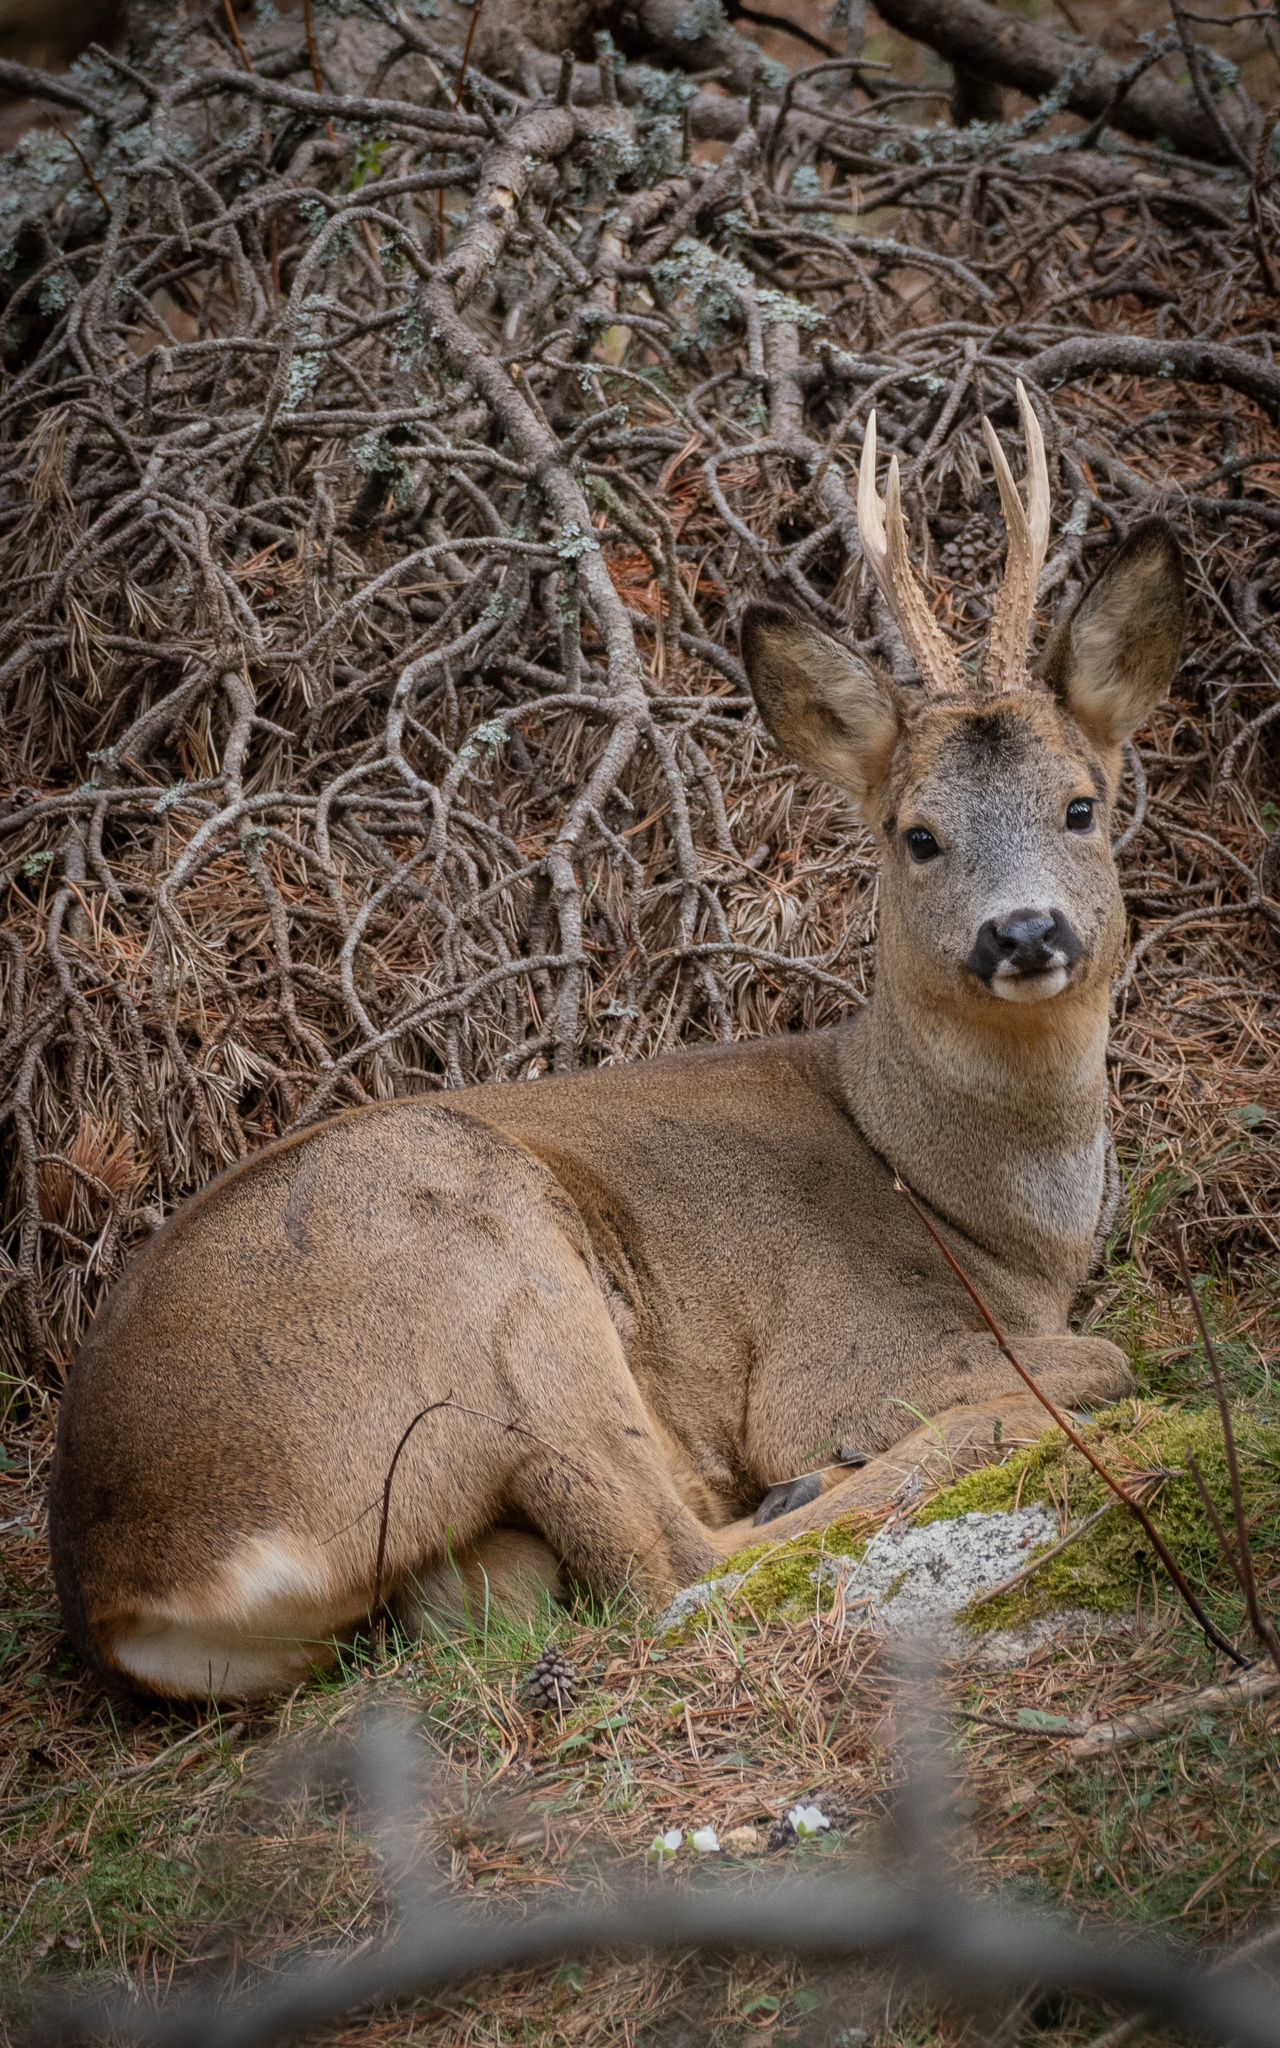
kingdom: Animalia
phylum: Chordata
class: Mammalia
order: Artiodactyla
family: Cervidae
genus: Capreolus
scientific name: Capreolus capreolus
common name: Western roe deer
